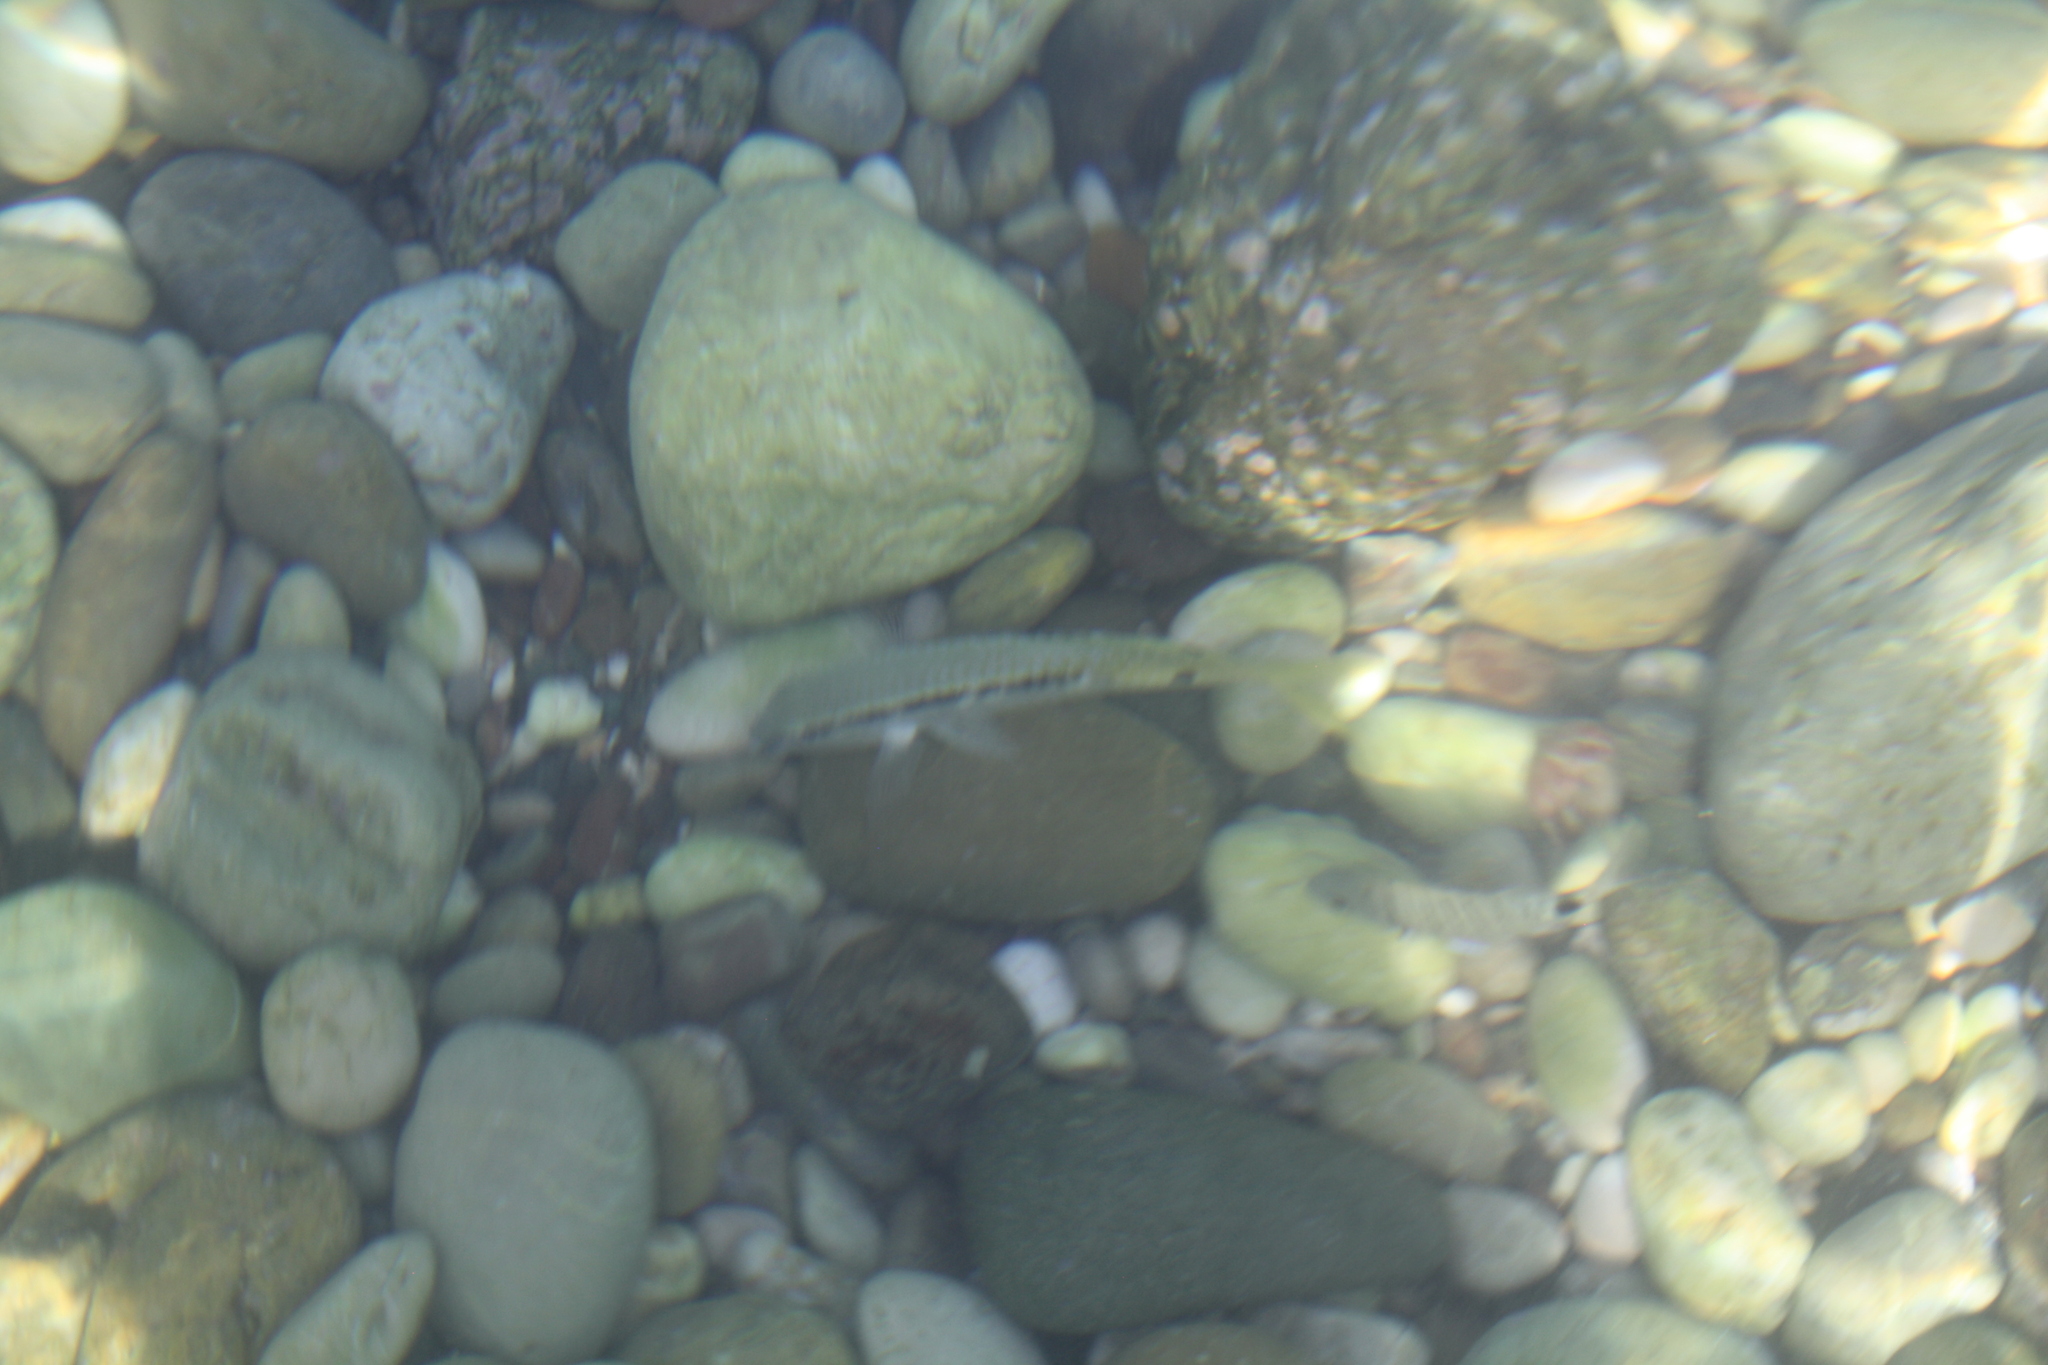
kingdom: Animalia
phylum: Chordata
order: Perciformes
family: Mullidae
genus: Parupeneus
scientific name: Parupeneus forsskali
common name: Red sea goatfish
